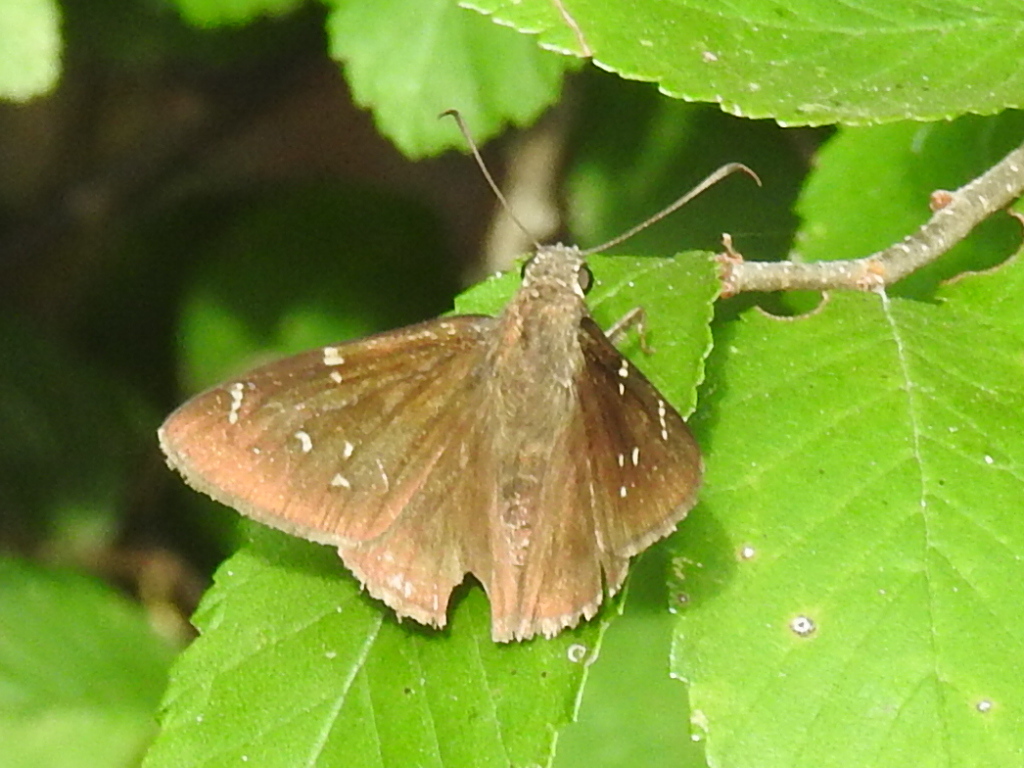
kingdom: Animalia
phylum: Arthropoda
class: Insecta
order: Lepidoptera
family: Hesperiidae
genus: Thorybes
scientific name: Thorybes pylades
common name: Northern cloudywing
